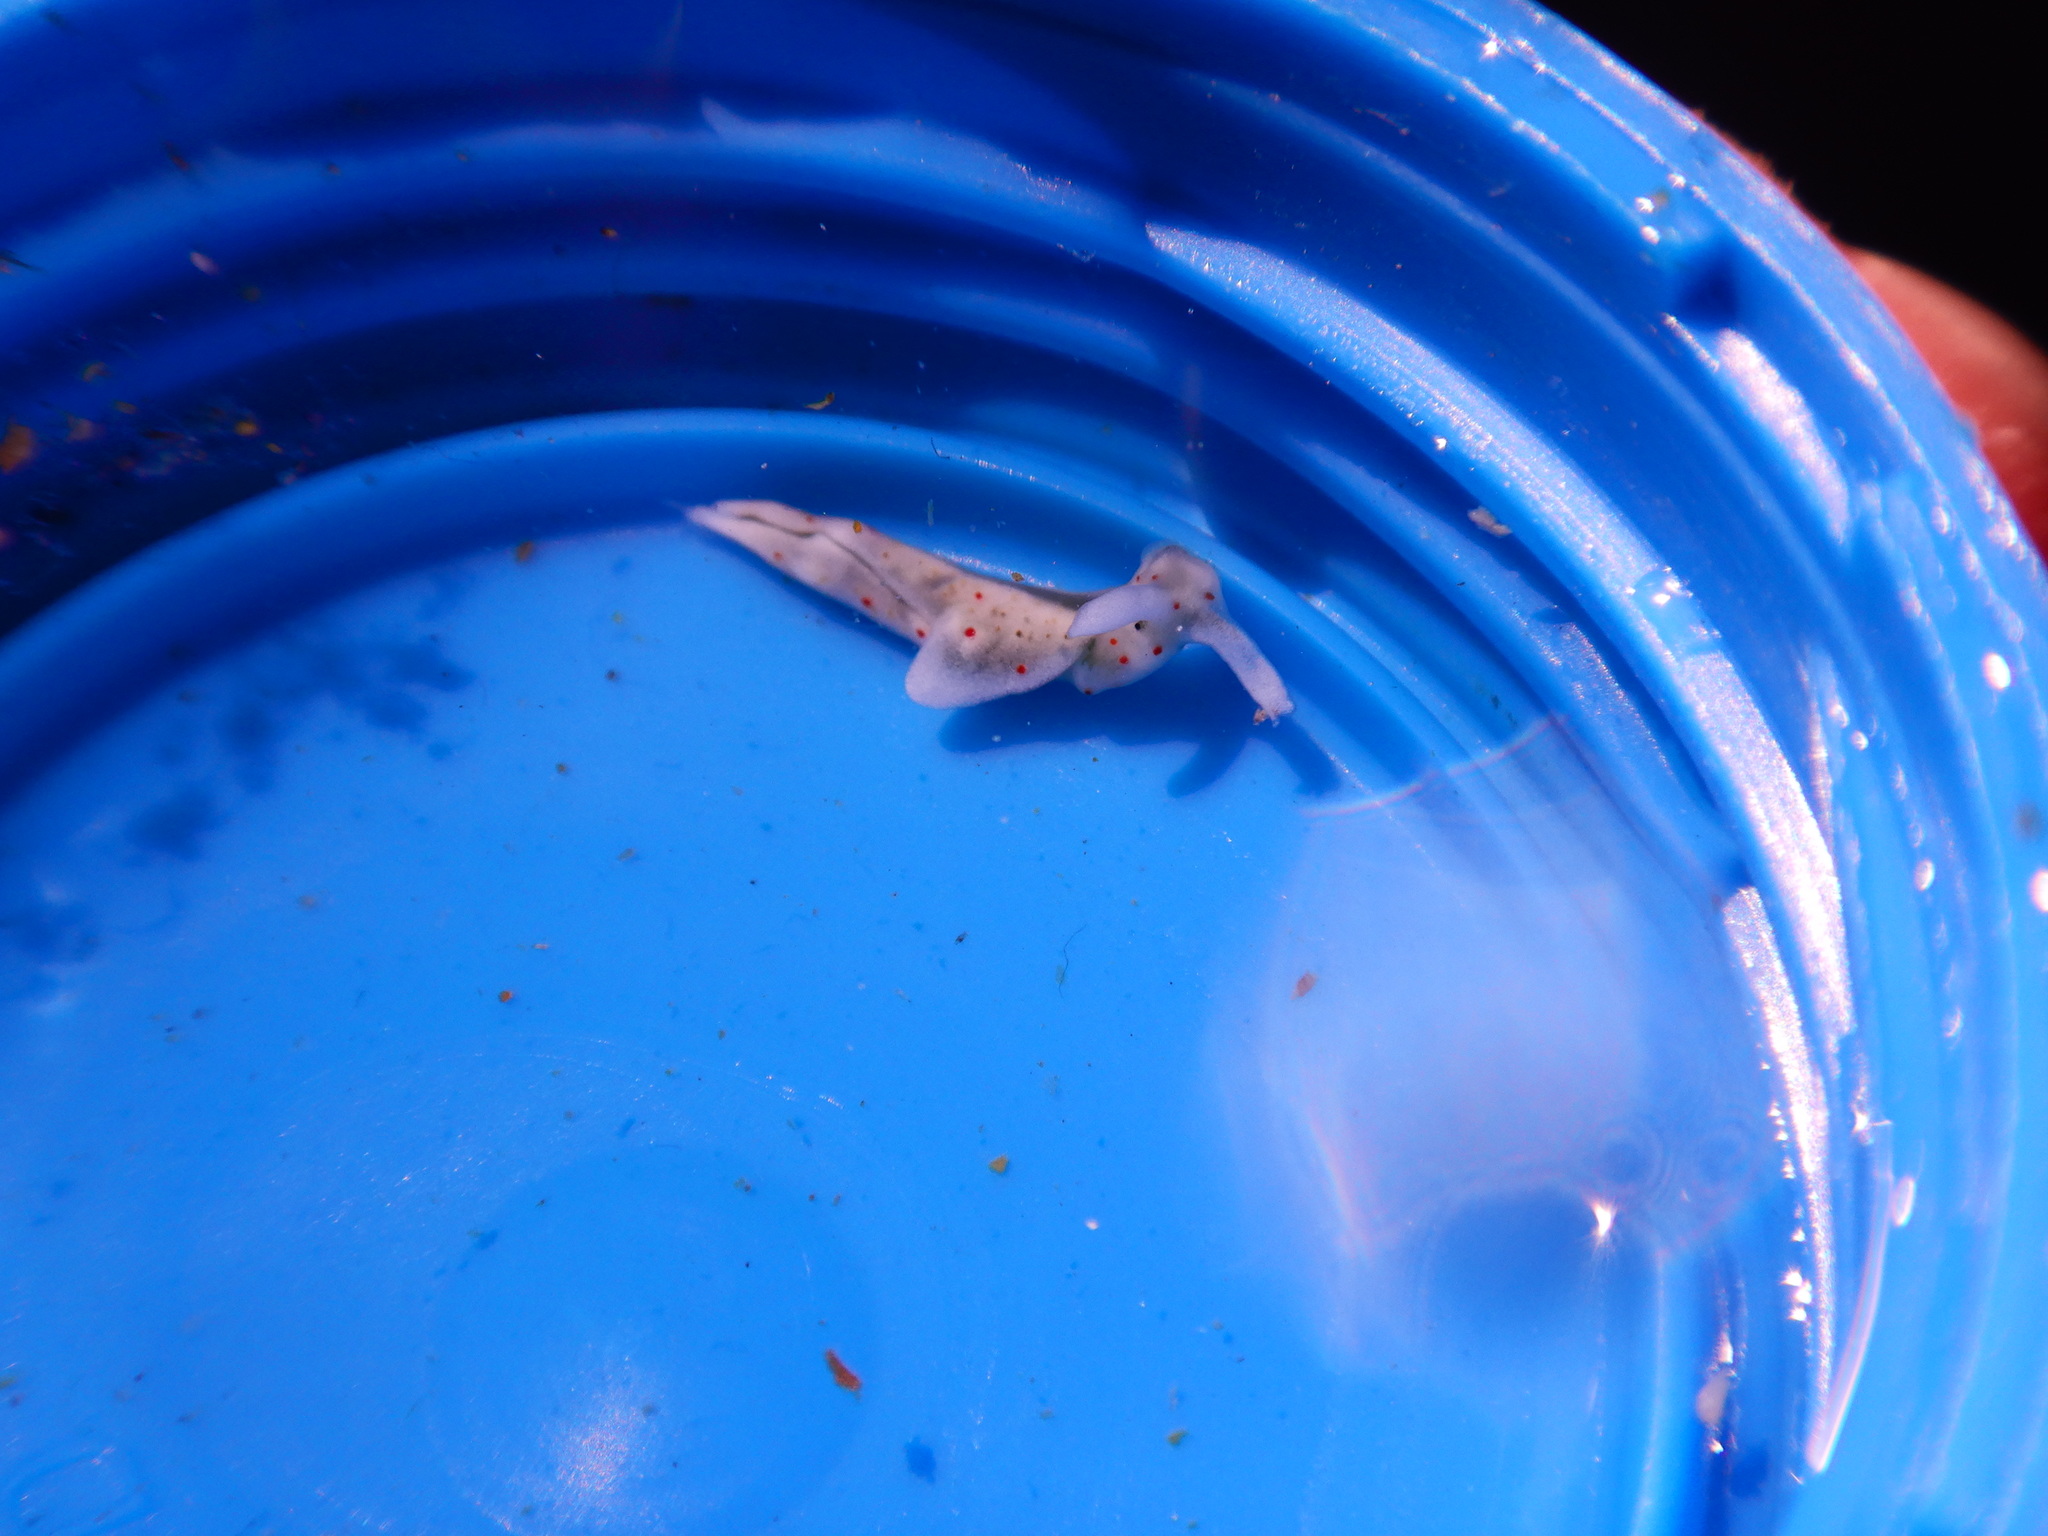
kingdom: Animalia
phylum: Mollusca
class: Gastropoda
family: Plakobranchidae
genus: Elysia
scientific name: Elysia timida
